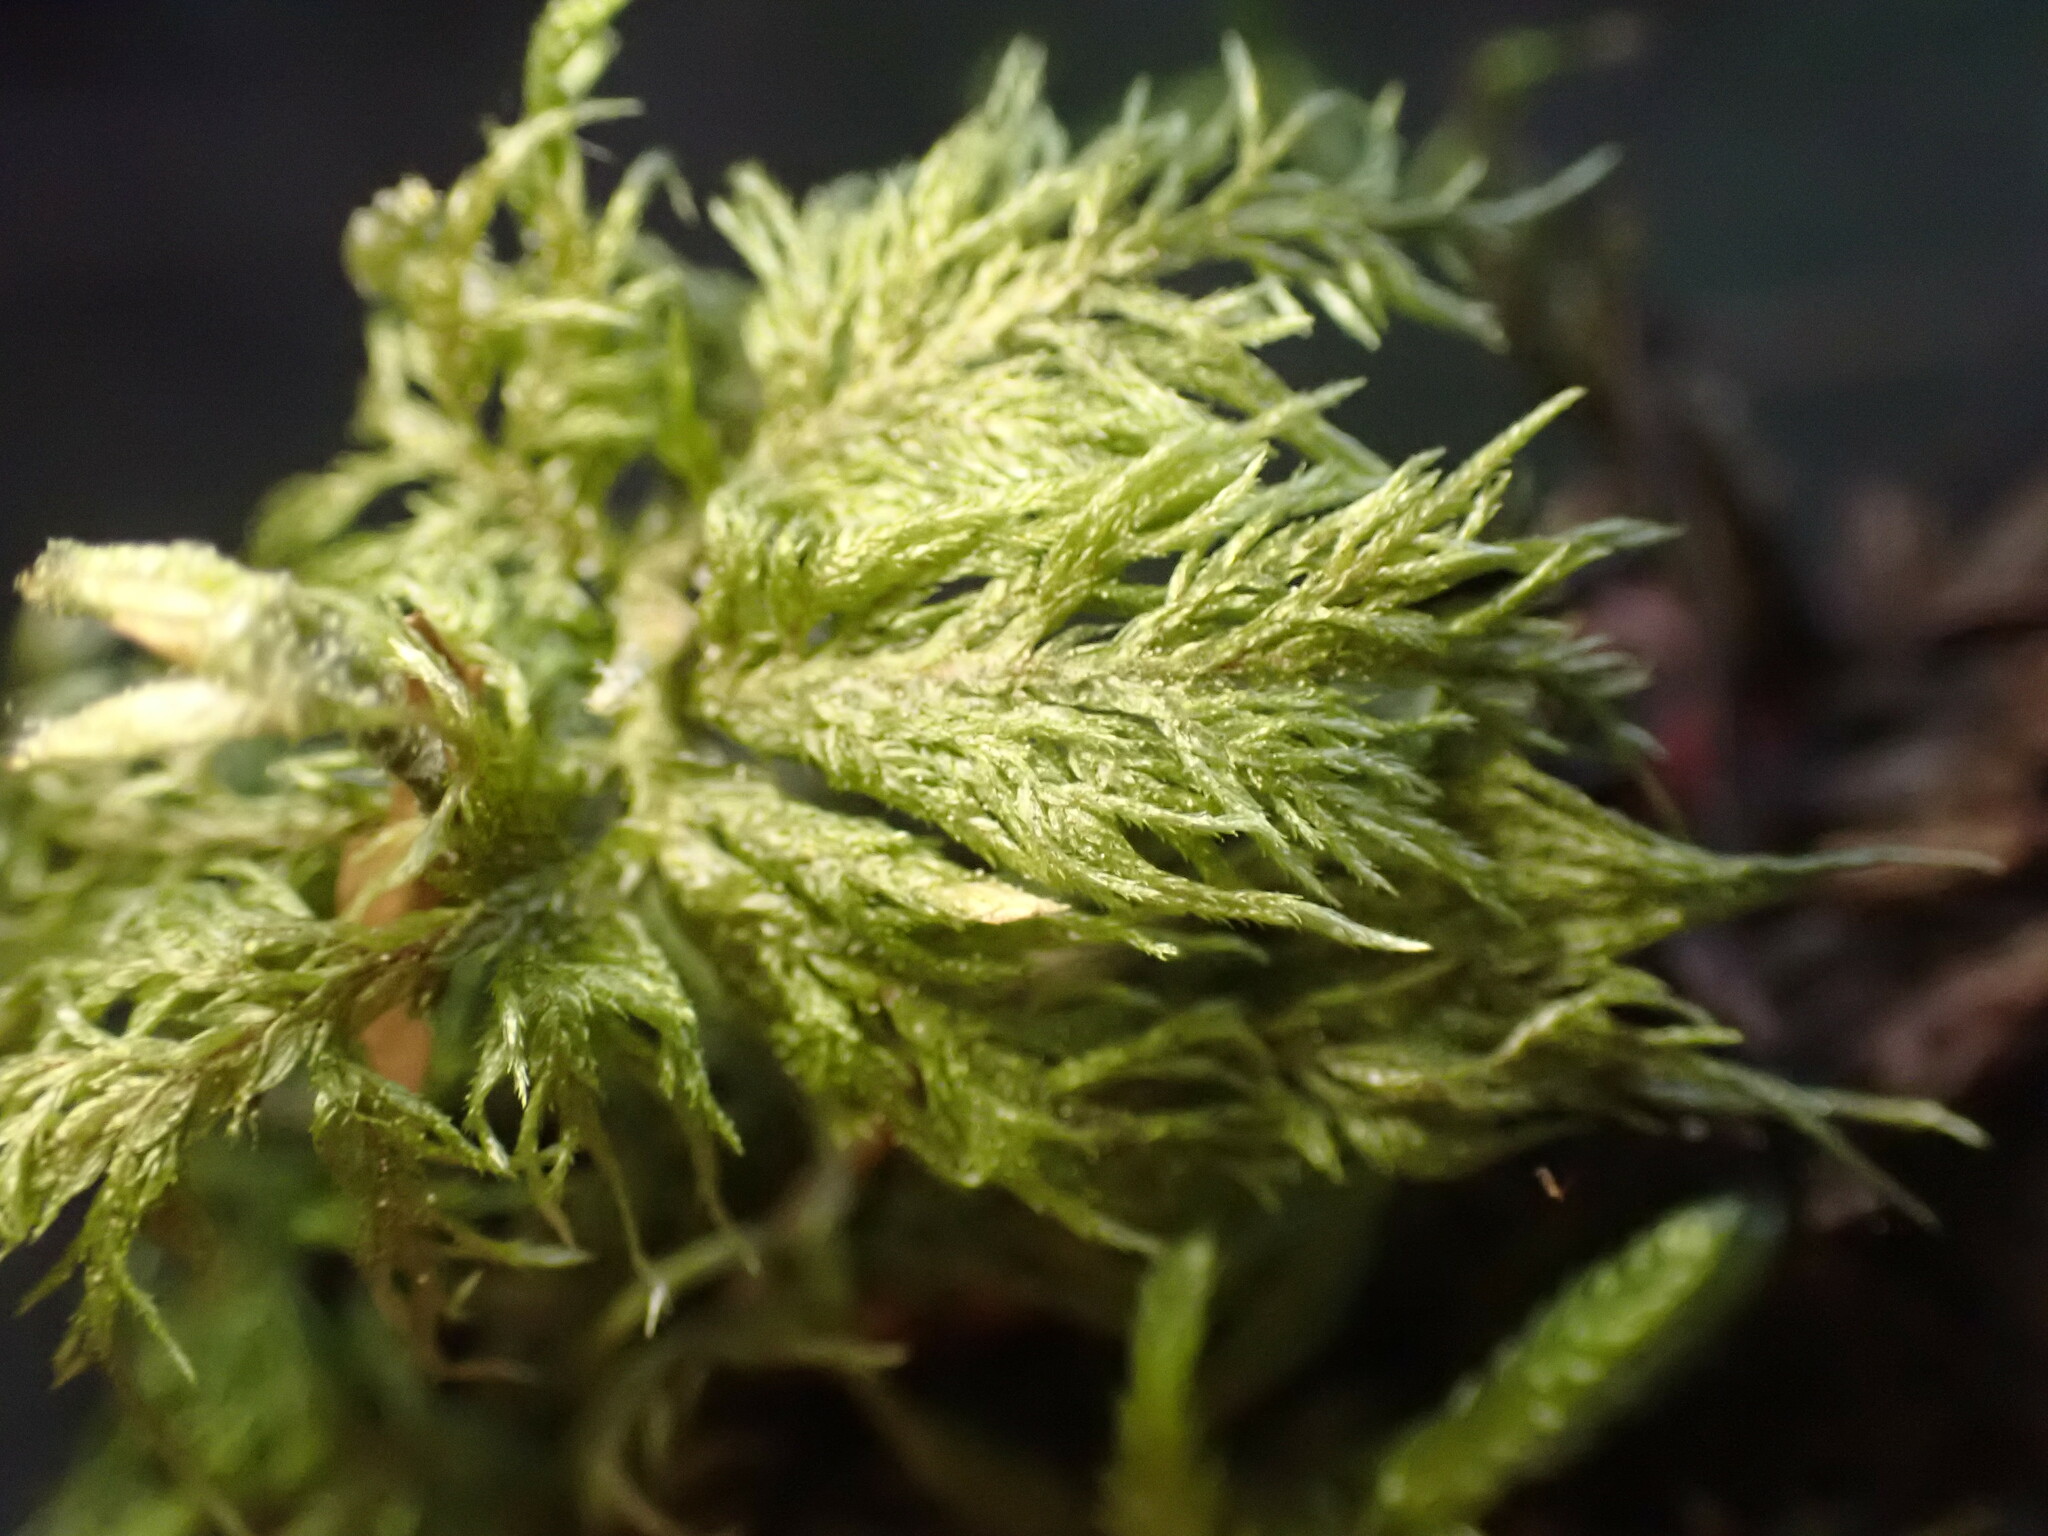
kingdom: Plantae
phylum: Bryophyta
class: Bryopsida
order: Hypnales
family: Hylocomiaceae
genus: Hylocomium
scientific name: Hylocomium splendens
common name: Stairstep moss
